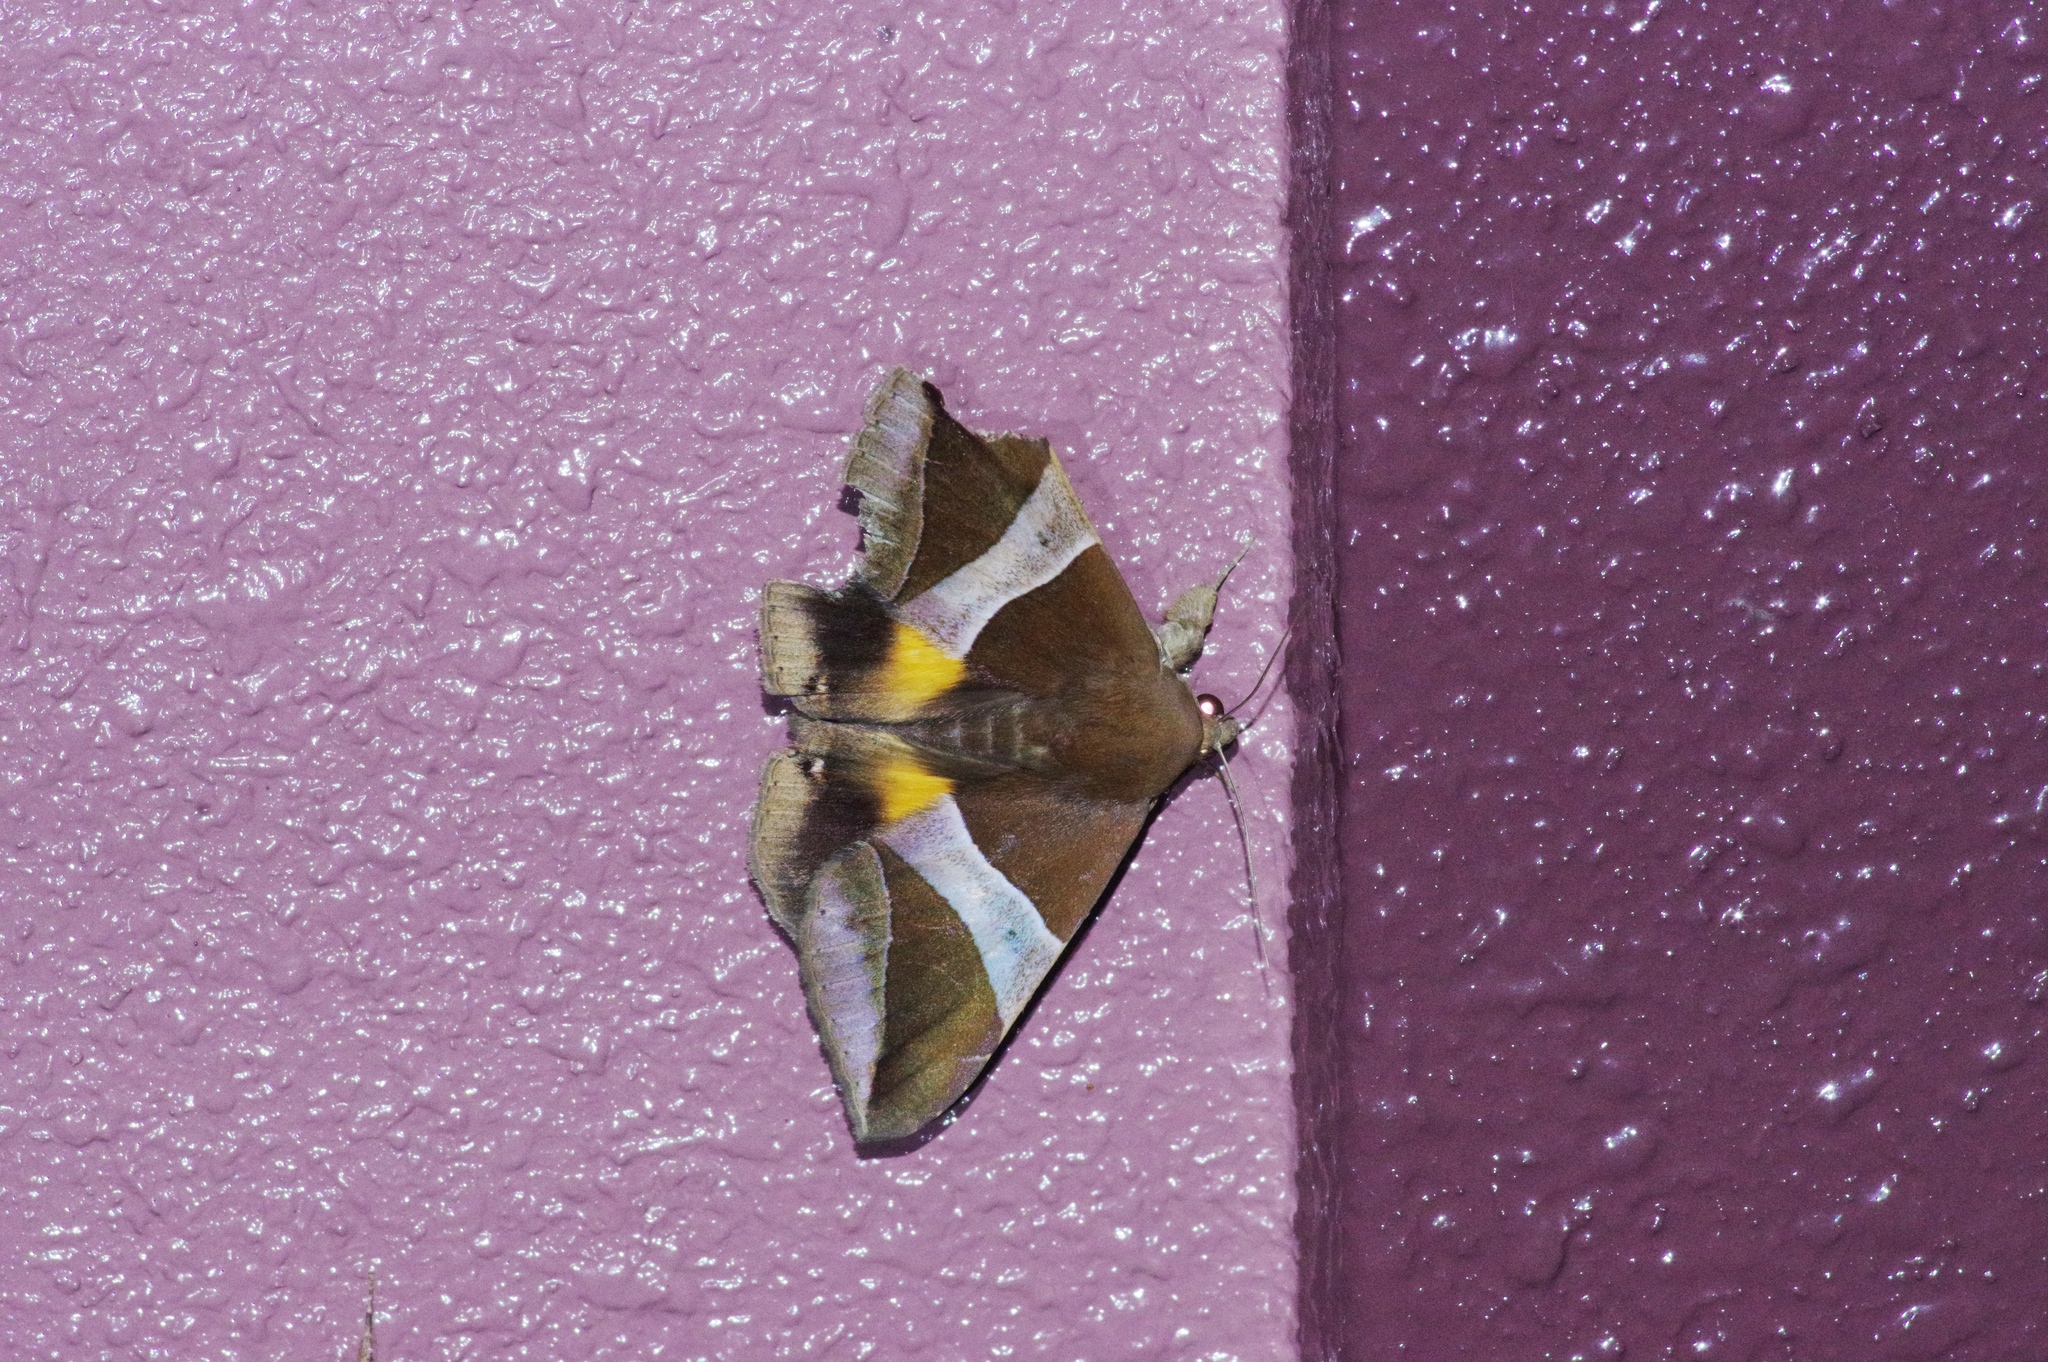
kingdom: Animalia
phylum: Arthropoda
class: Insecta
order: Lepidoptera
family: Erebidae
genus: Bastilla
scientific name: Bastilla fulvotaenia
